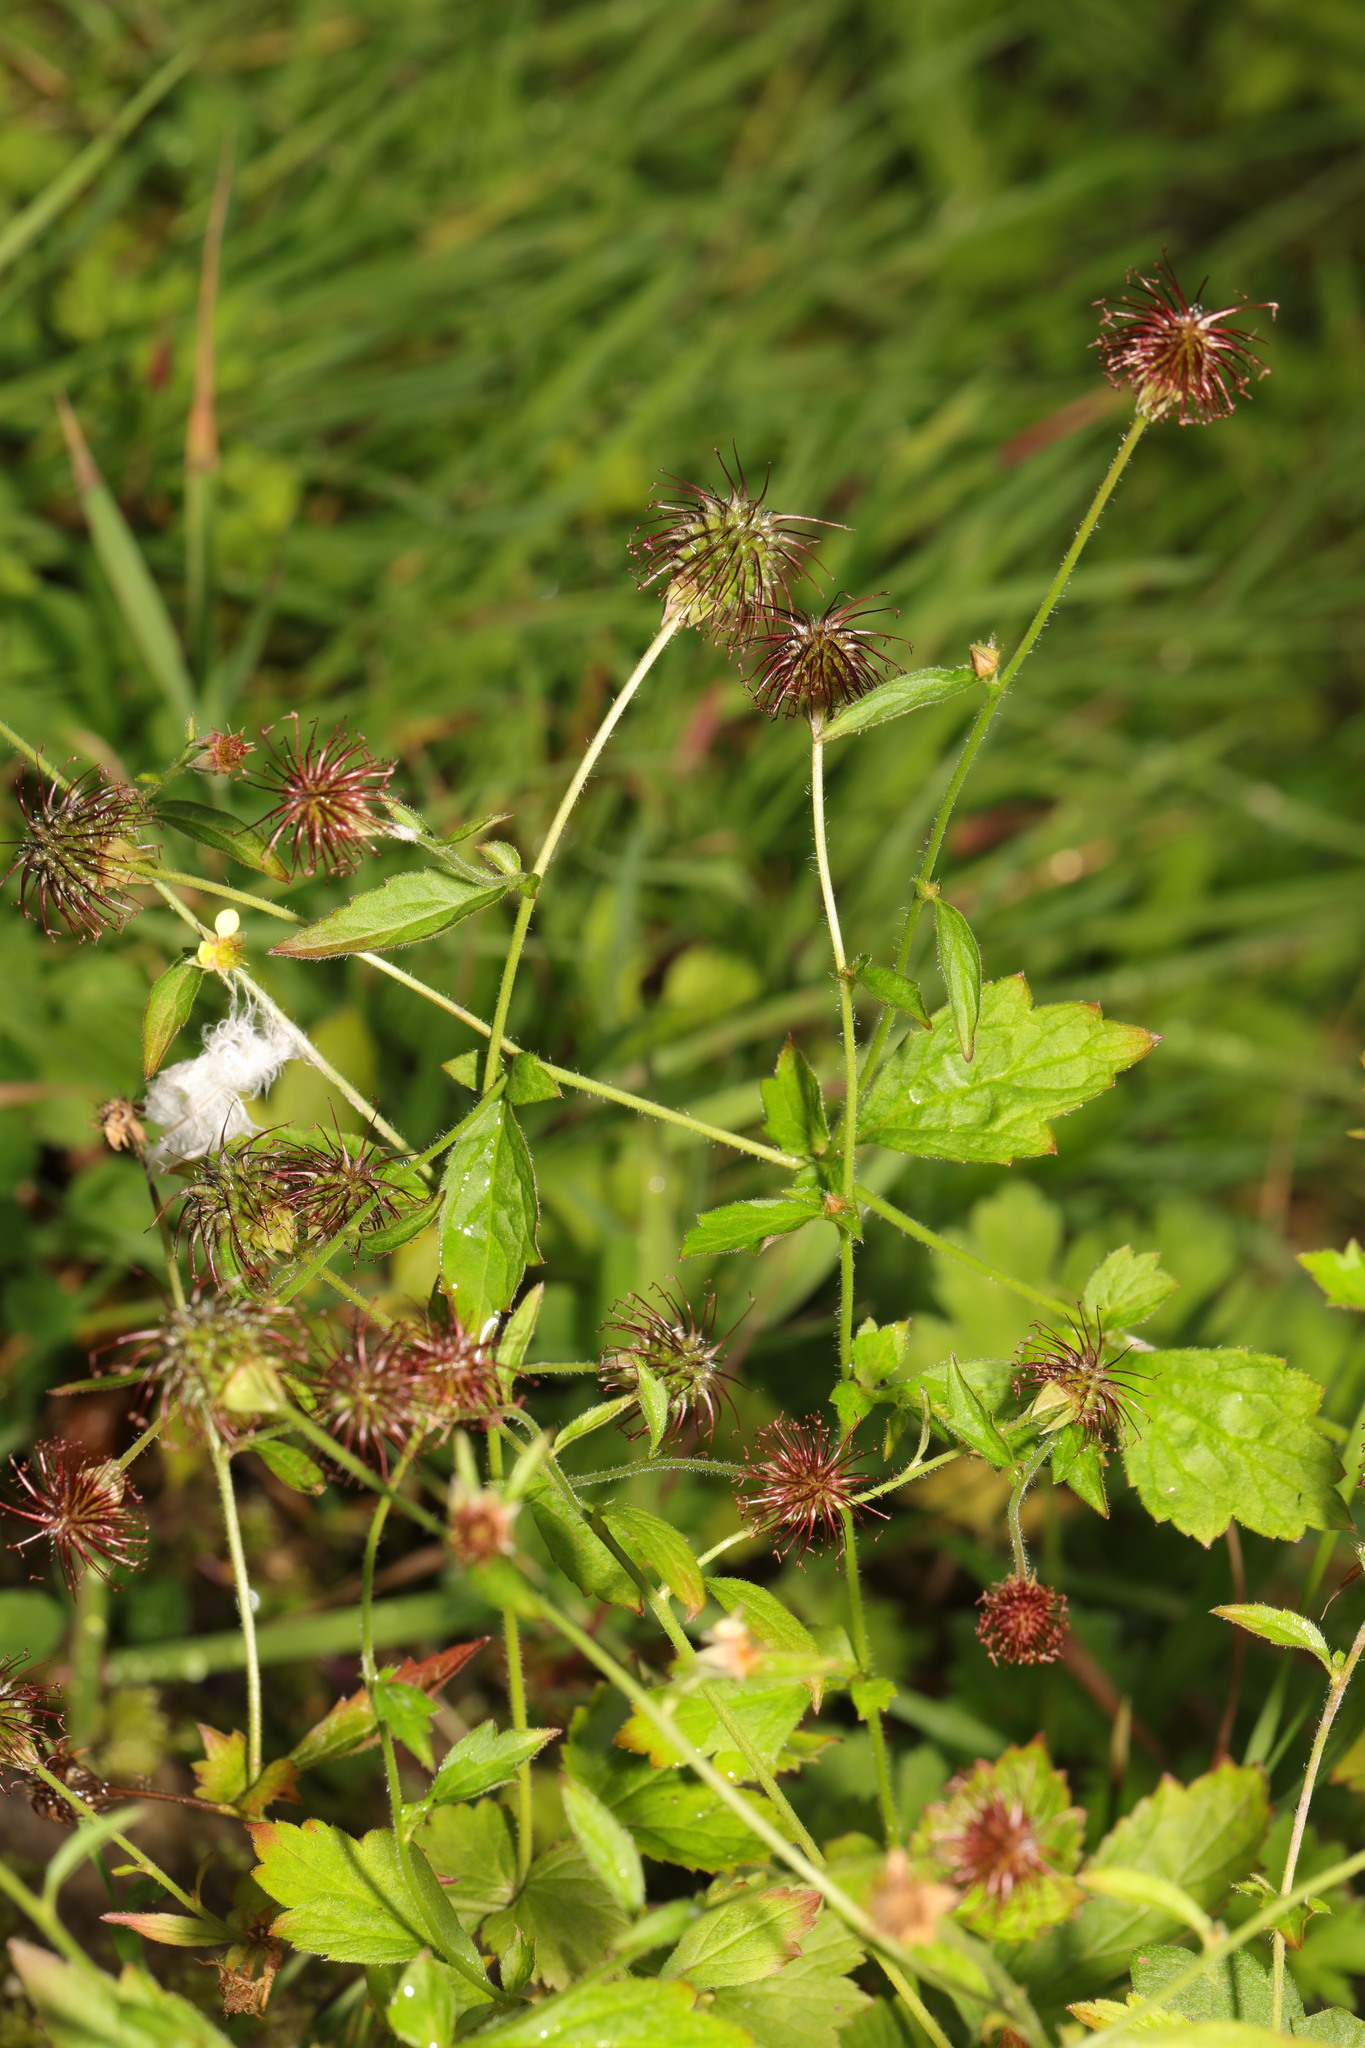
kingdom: Plantae
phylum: Tracheophyta
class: Magnoliopsida
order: Rosales
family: Rosaceae
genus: Geum
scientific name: Geum urbanum
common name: Wood avens
